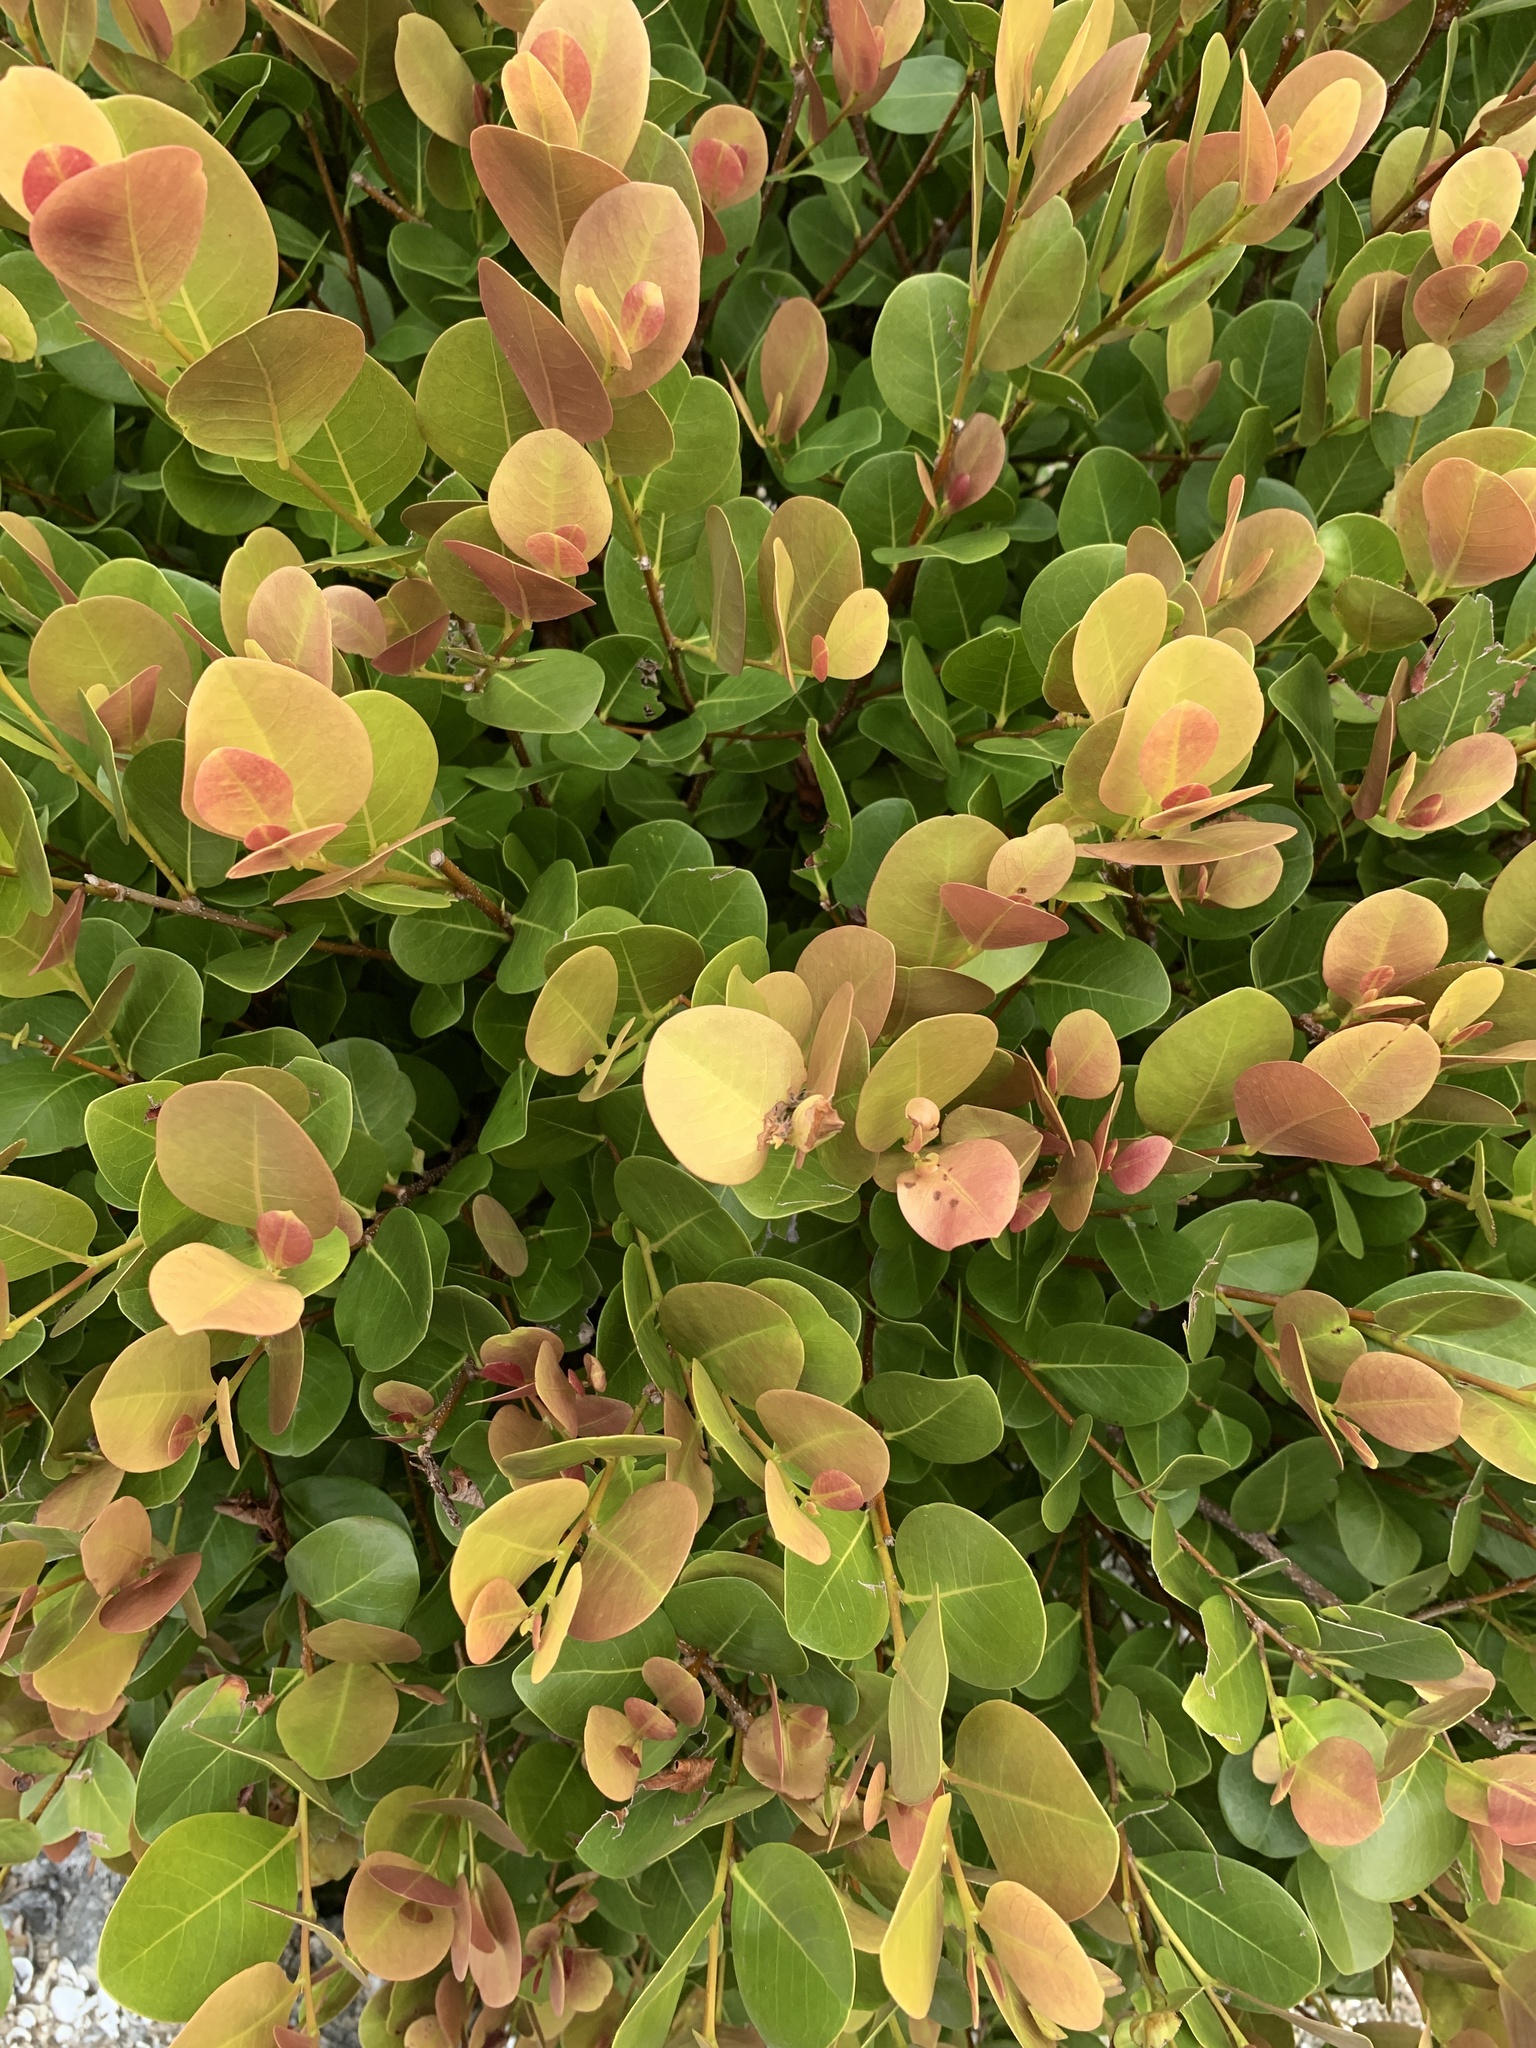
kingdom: Plantae
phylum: Tracheophyta
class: Magnoliopsida
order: Malpighiales
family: Chrysobalanaceae
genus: Chrysobalanus
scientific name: Chrysobalanus icaco
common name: Coco plum
